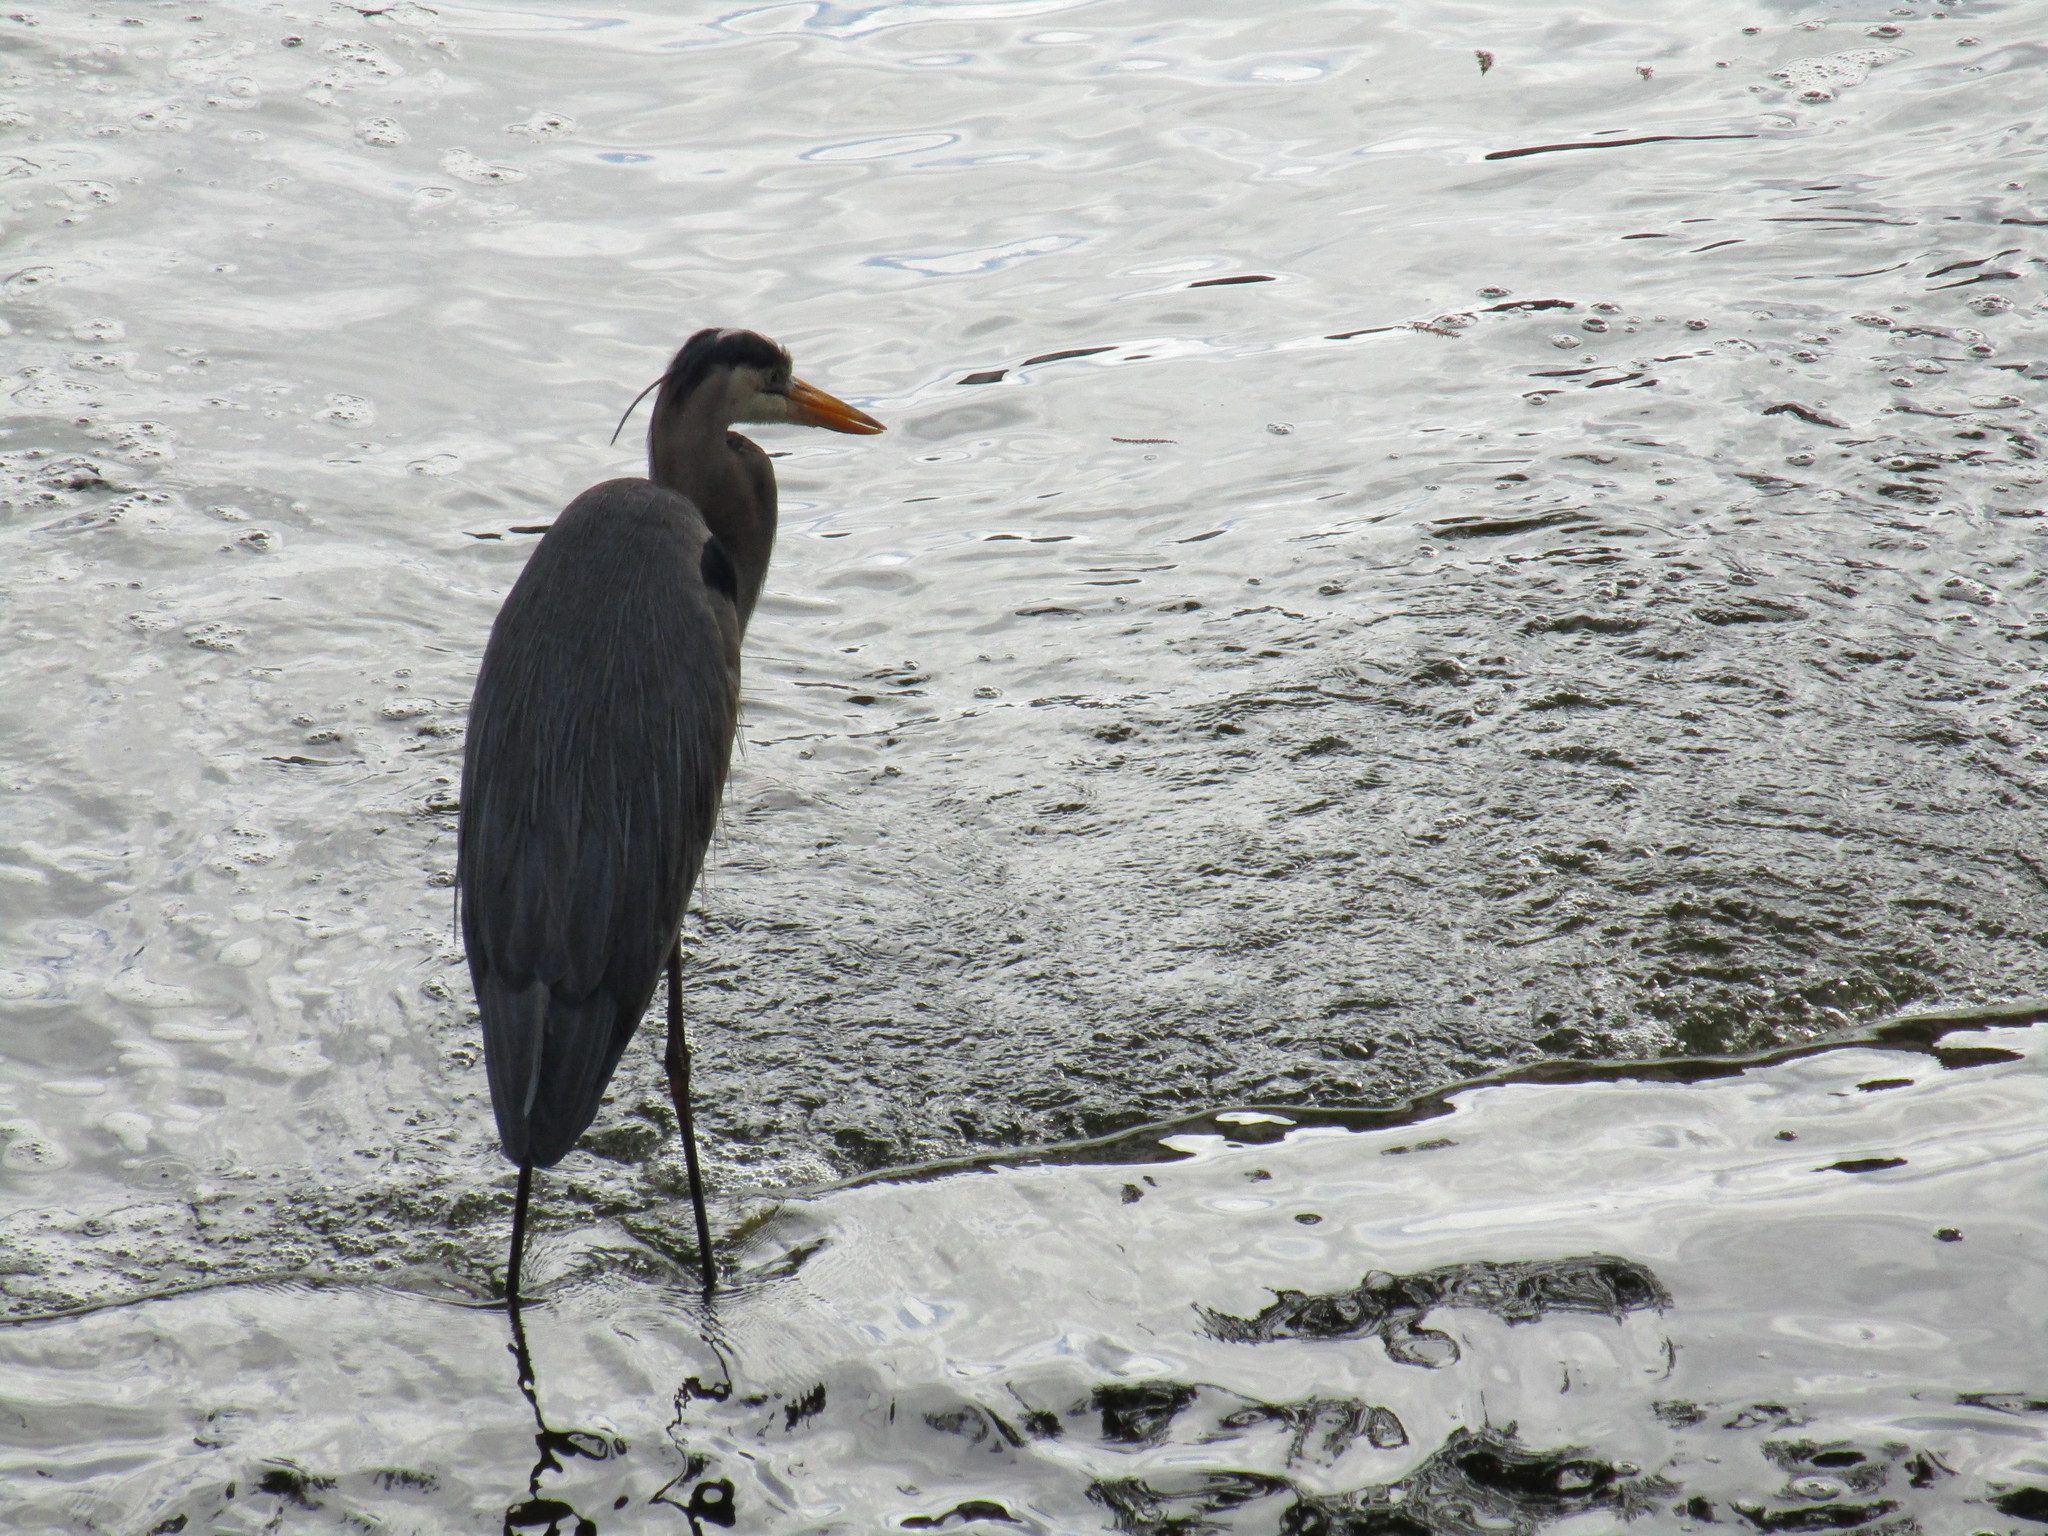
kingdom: Animalia
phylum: Chordata
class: Aves
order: Pelecaniformes
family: Ardeidae
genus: Ardea
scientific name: Ardea herodias
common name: Great blue heron
